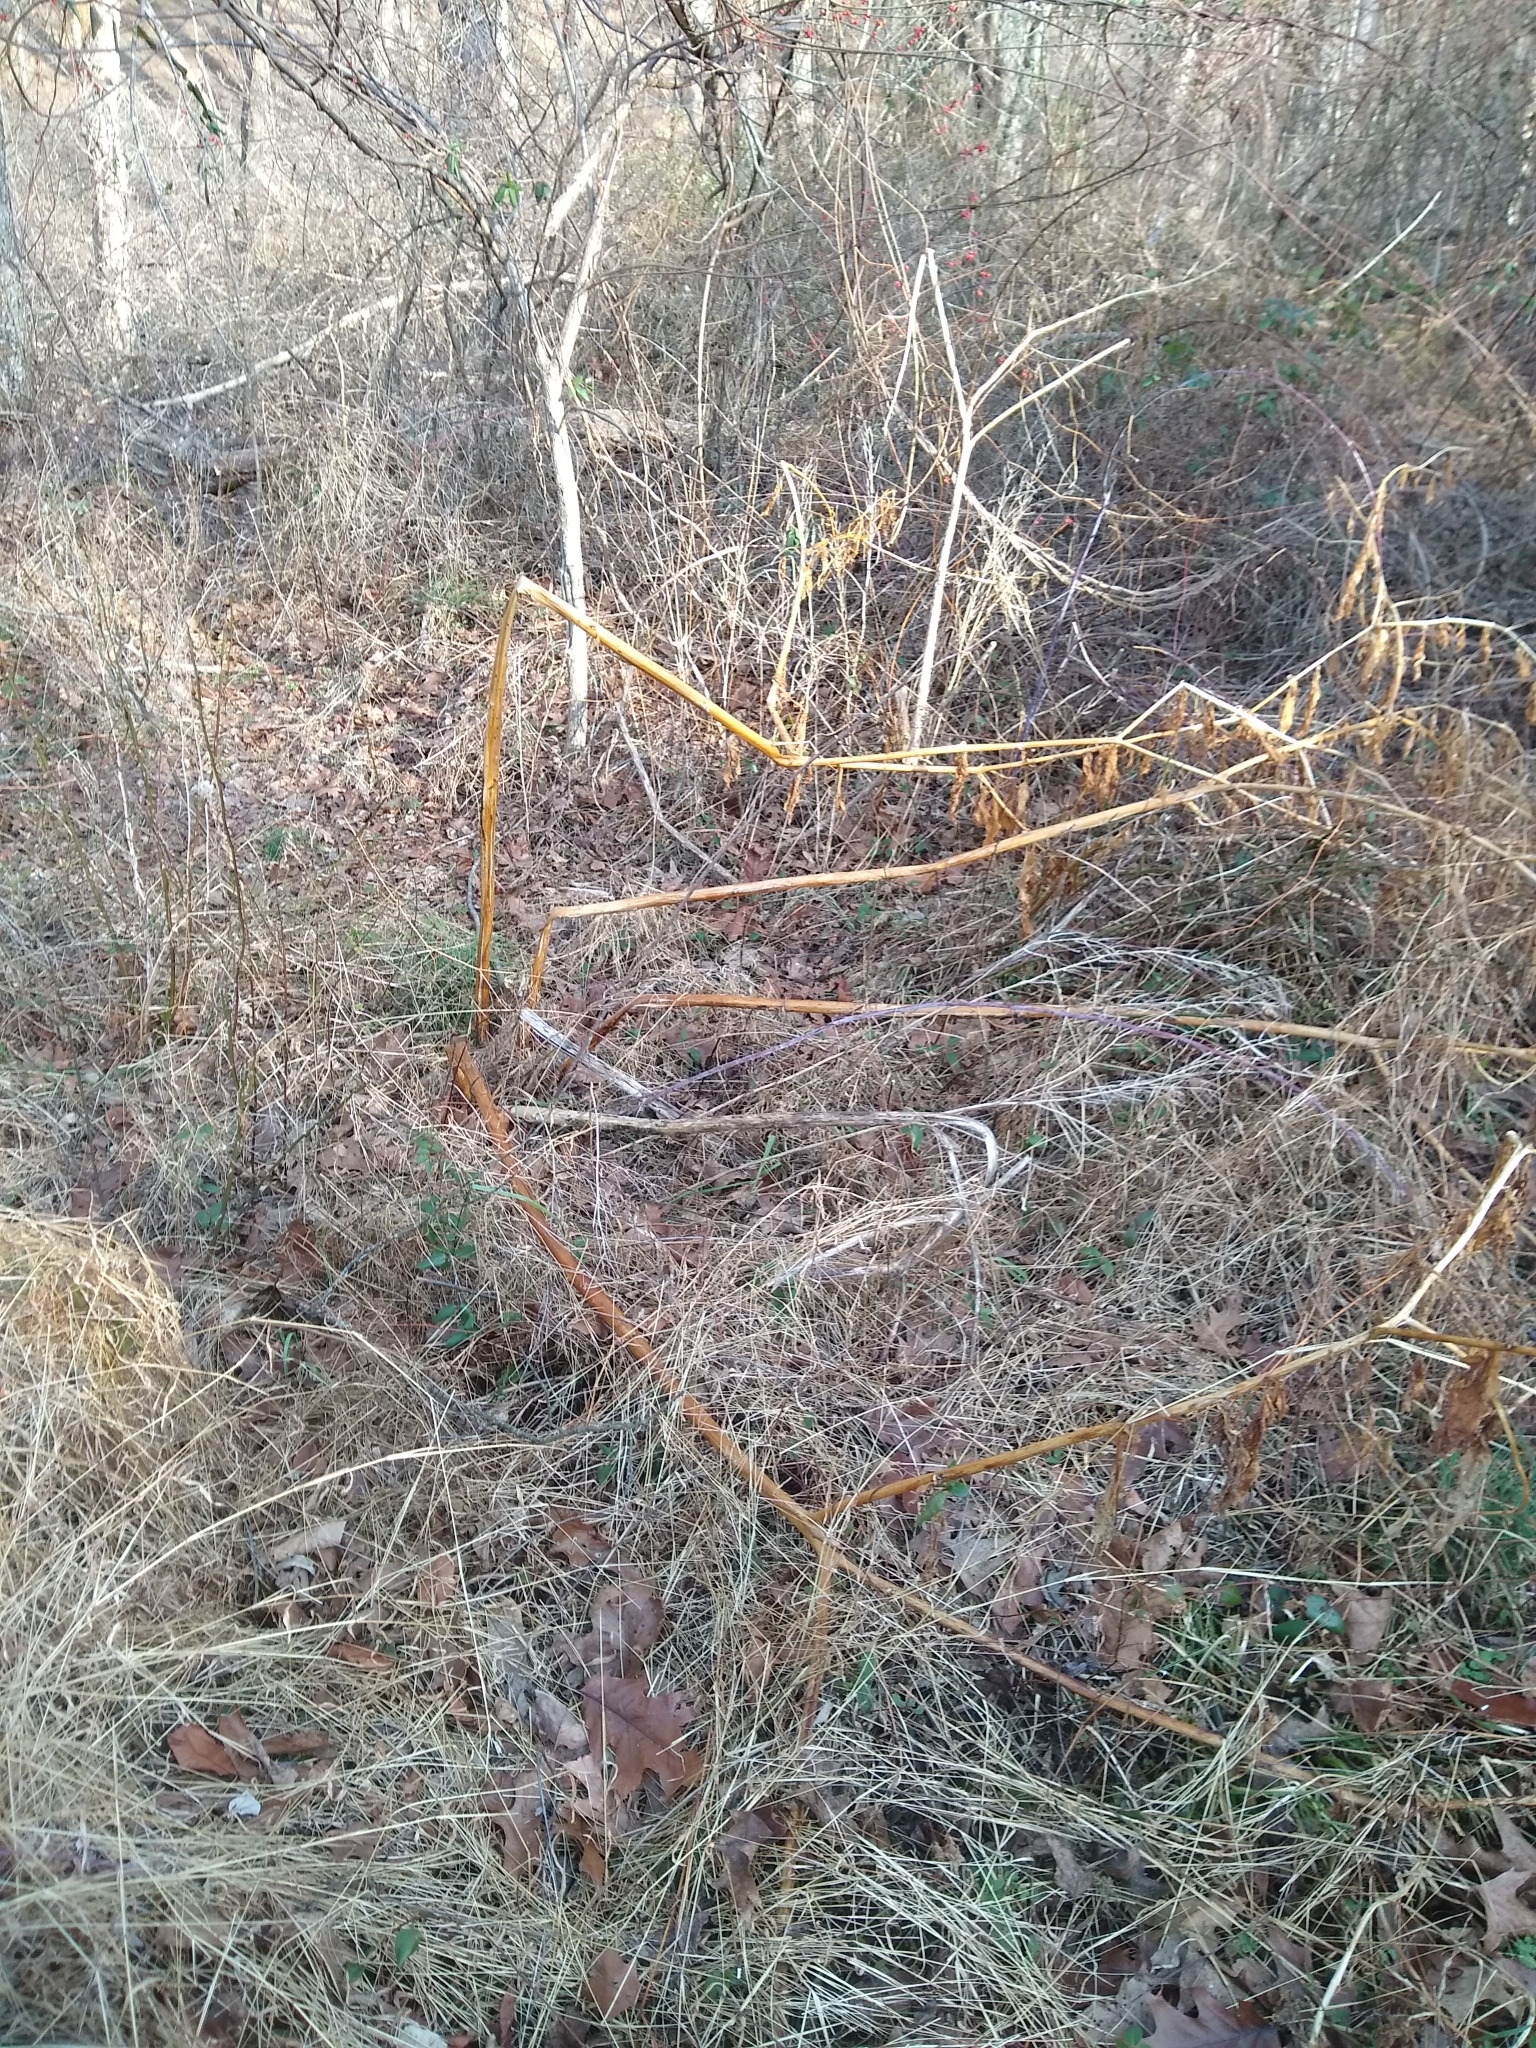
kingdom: Plantae
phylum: Tracheophyta
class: Magnoliopsida
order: Caryophyllales
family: Phytolaccaceae
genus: Phytolacca
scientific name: Phytolacca americana
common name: American pokeweed
